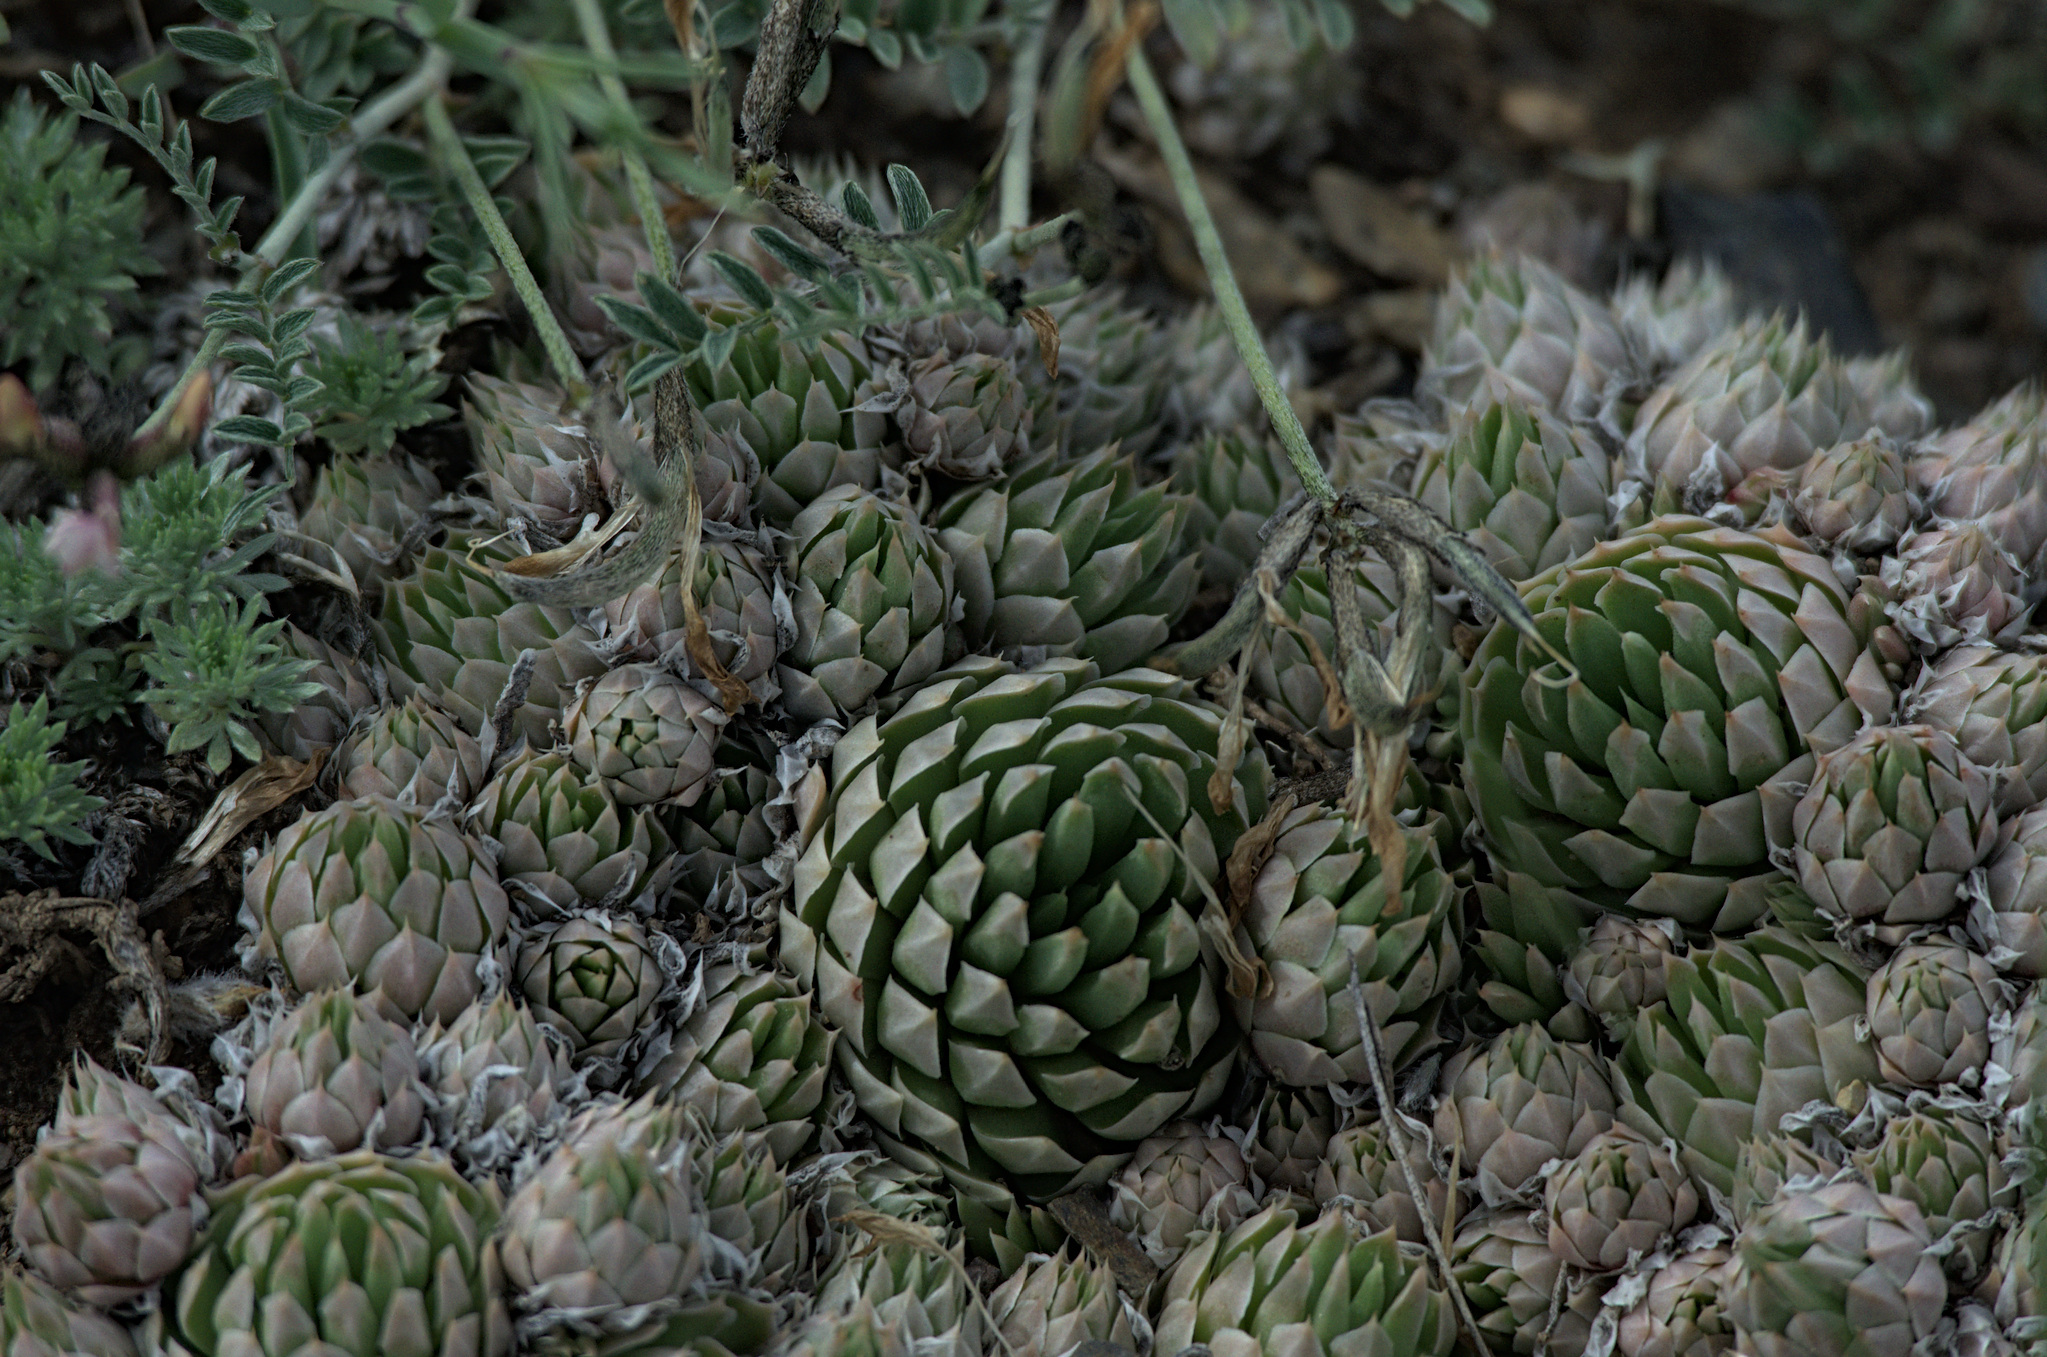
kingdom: Plantae
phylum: Tracheophyta
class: Magnoliopsida
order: Saxifragales
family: Crassulaceae
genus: Orostachys
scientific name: Orostachys spinosa
